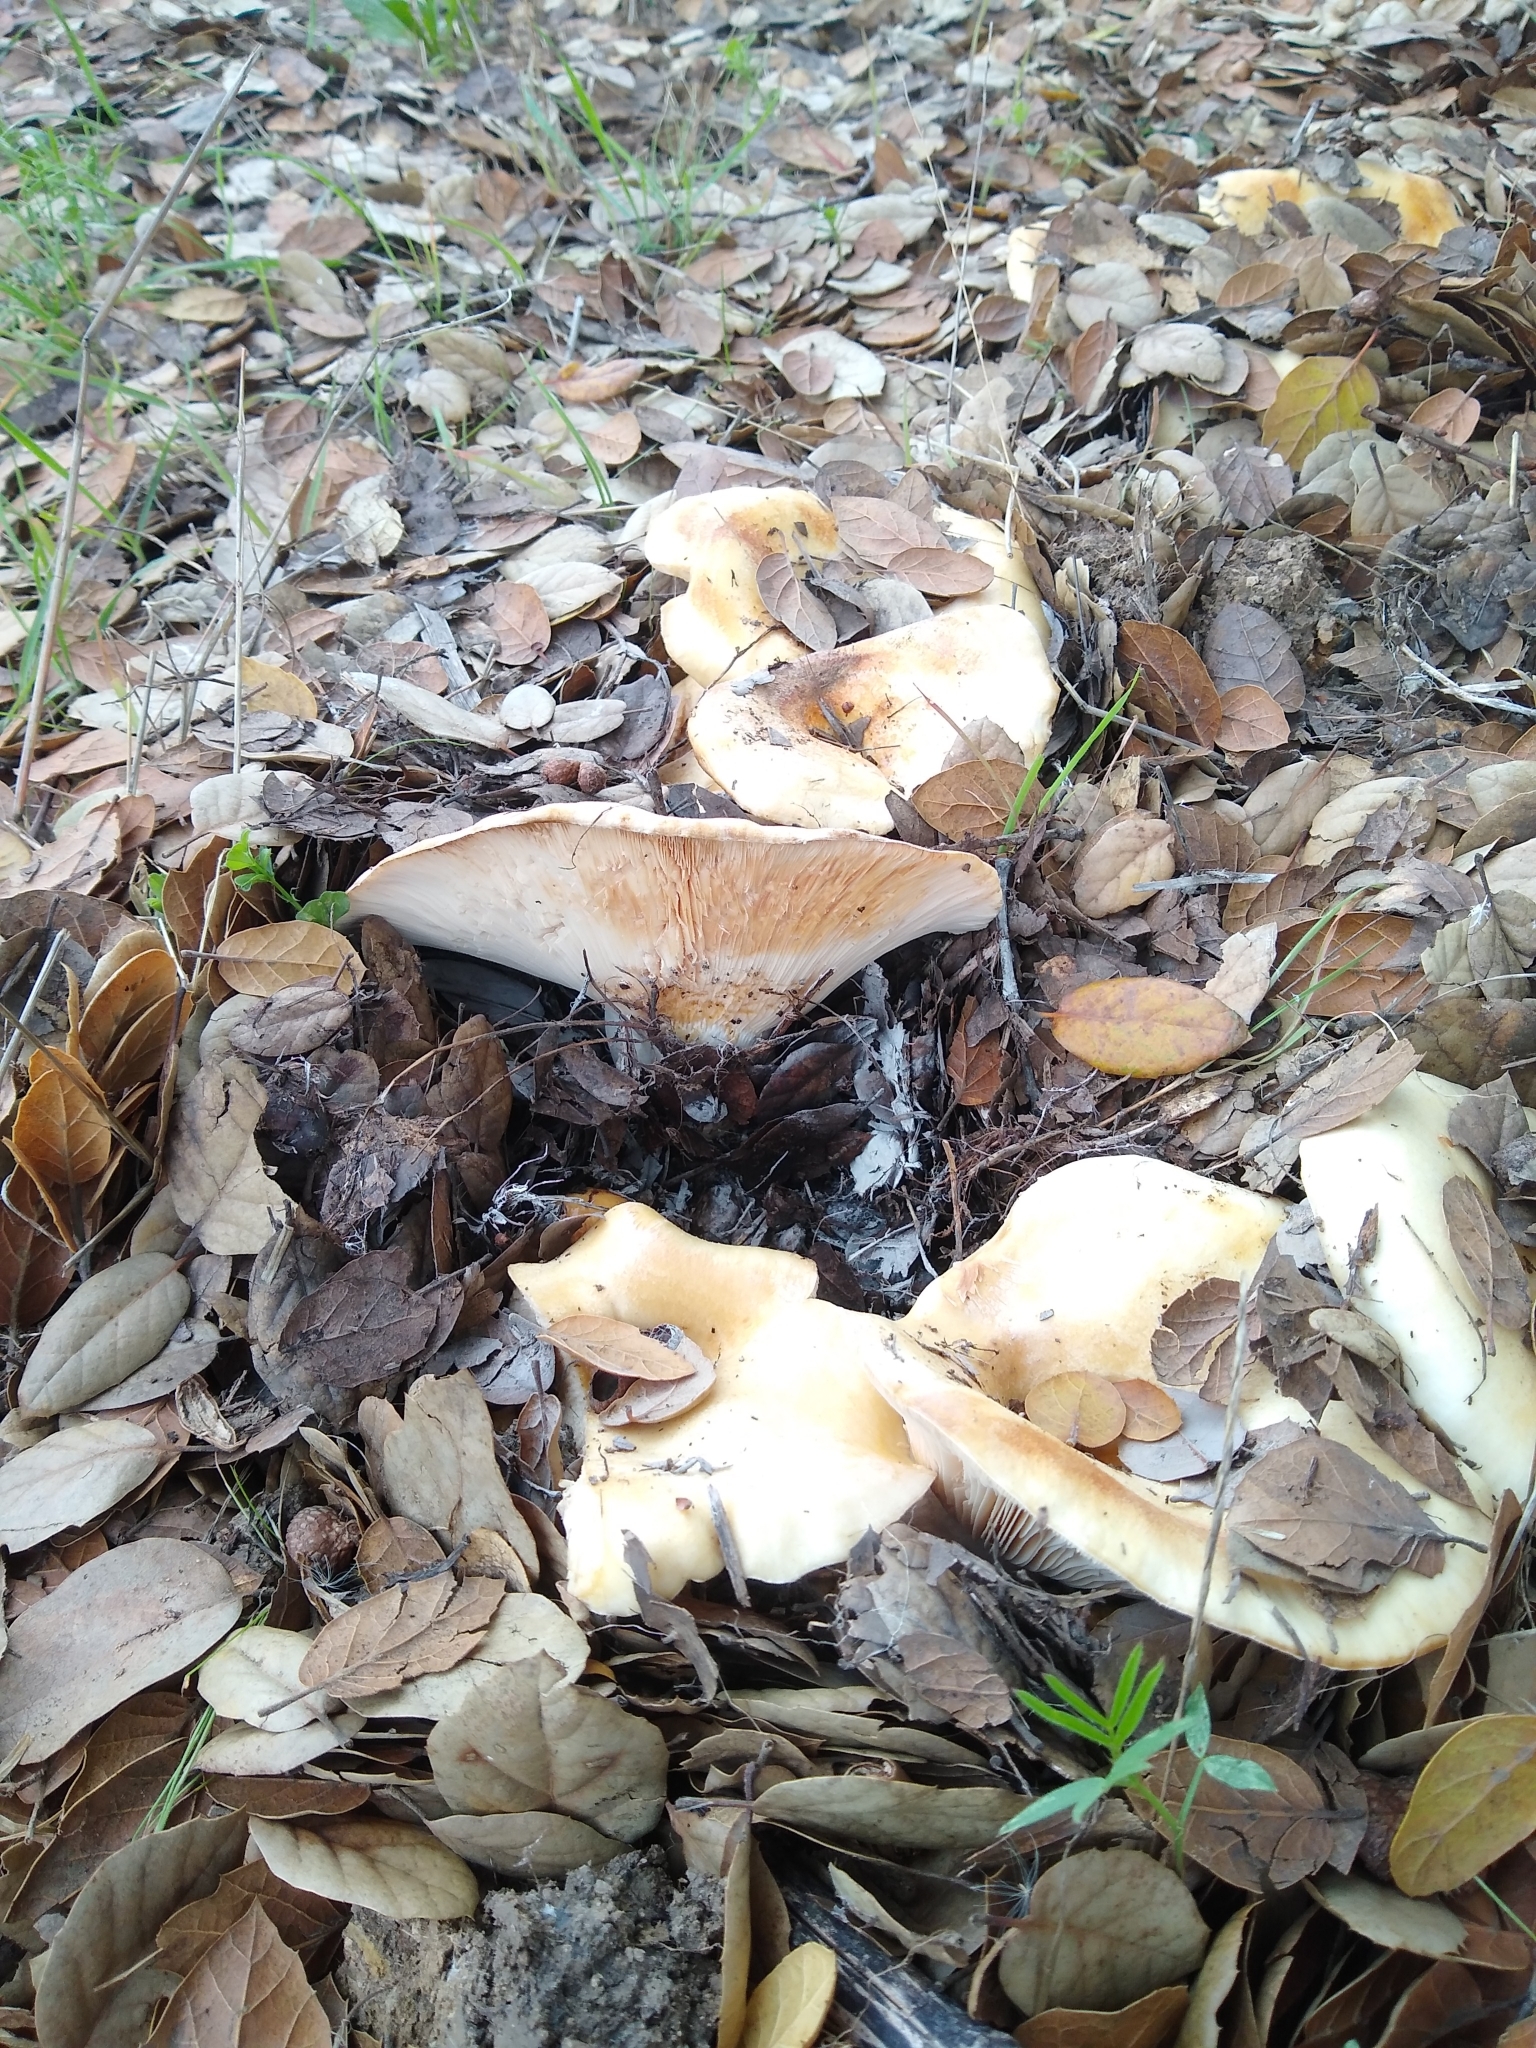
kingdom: Fungi
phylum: Basidiomycota
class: Agaricomycetes
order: Russulales
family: Russulaceae
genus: Lactarius
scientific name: Lactarius alnicola
